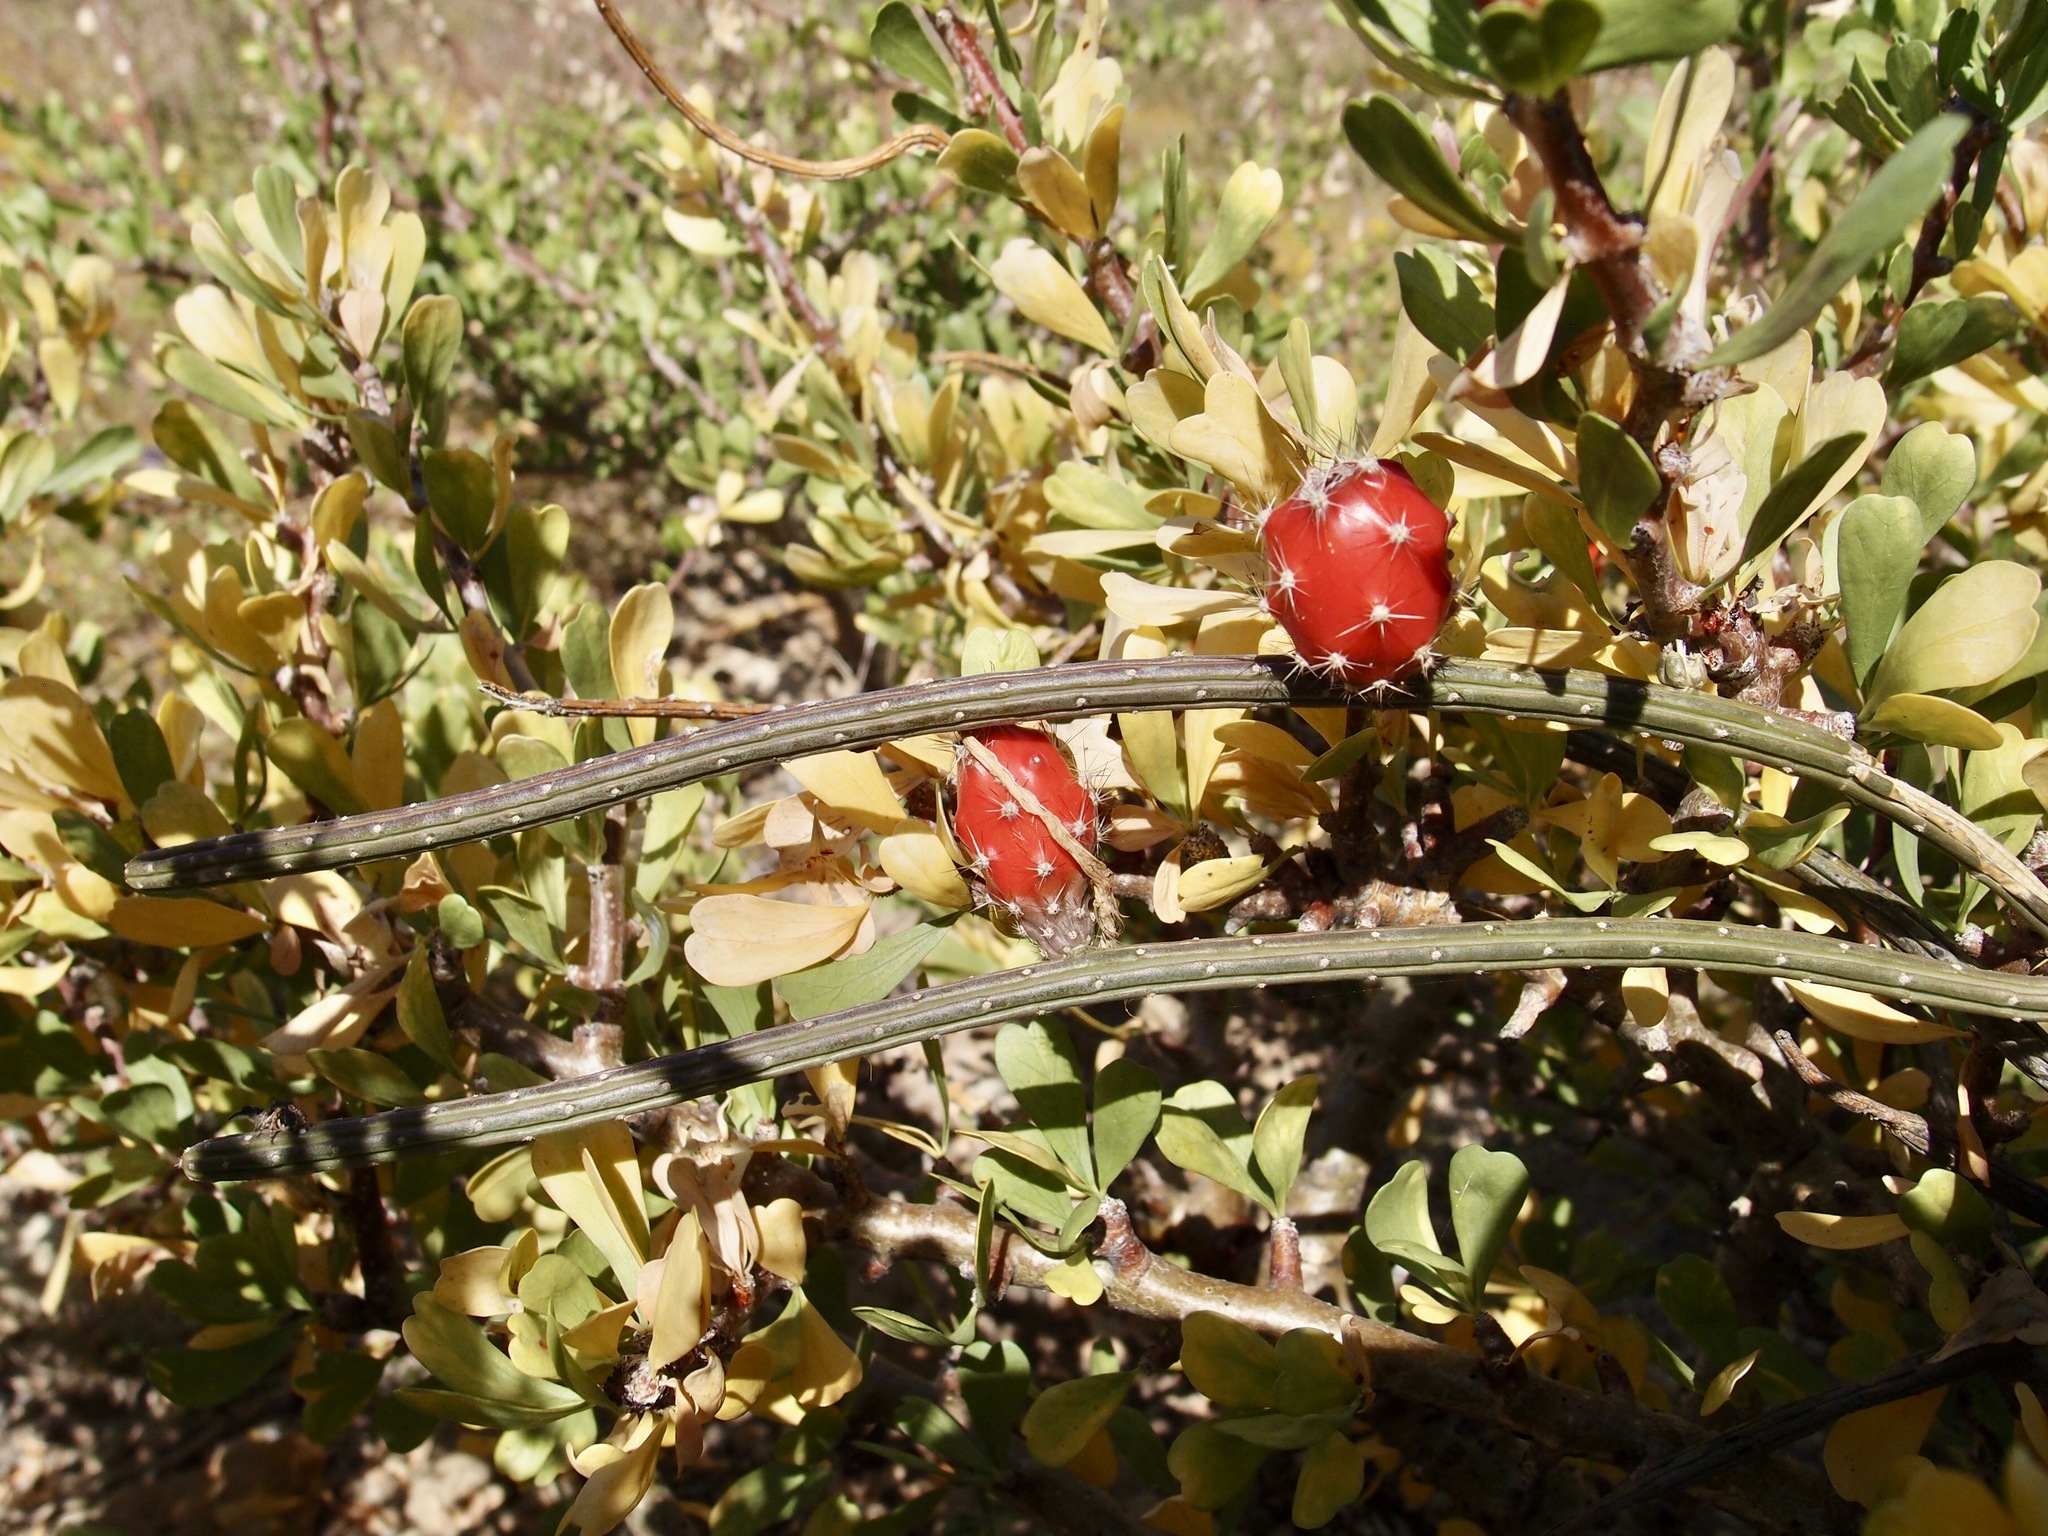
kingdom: Plantae
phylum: Tracheophyta
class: Magnoliopsida
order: Caryophyllales
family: Cactaceae
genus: Peniocereus
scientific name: Peniocereus striatus
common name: Gearstem cactus
